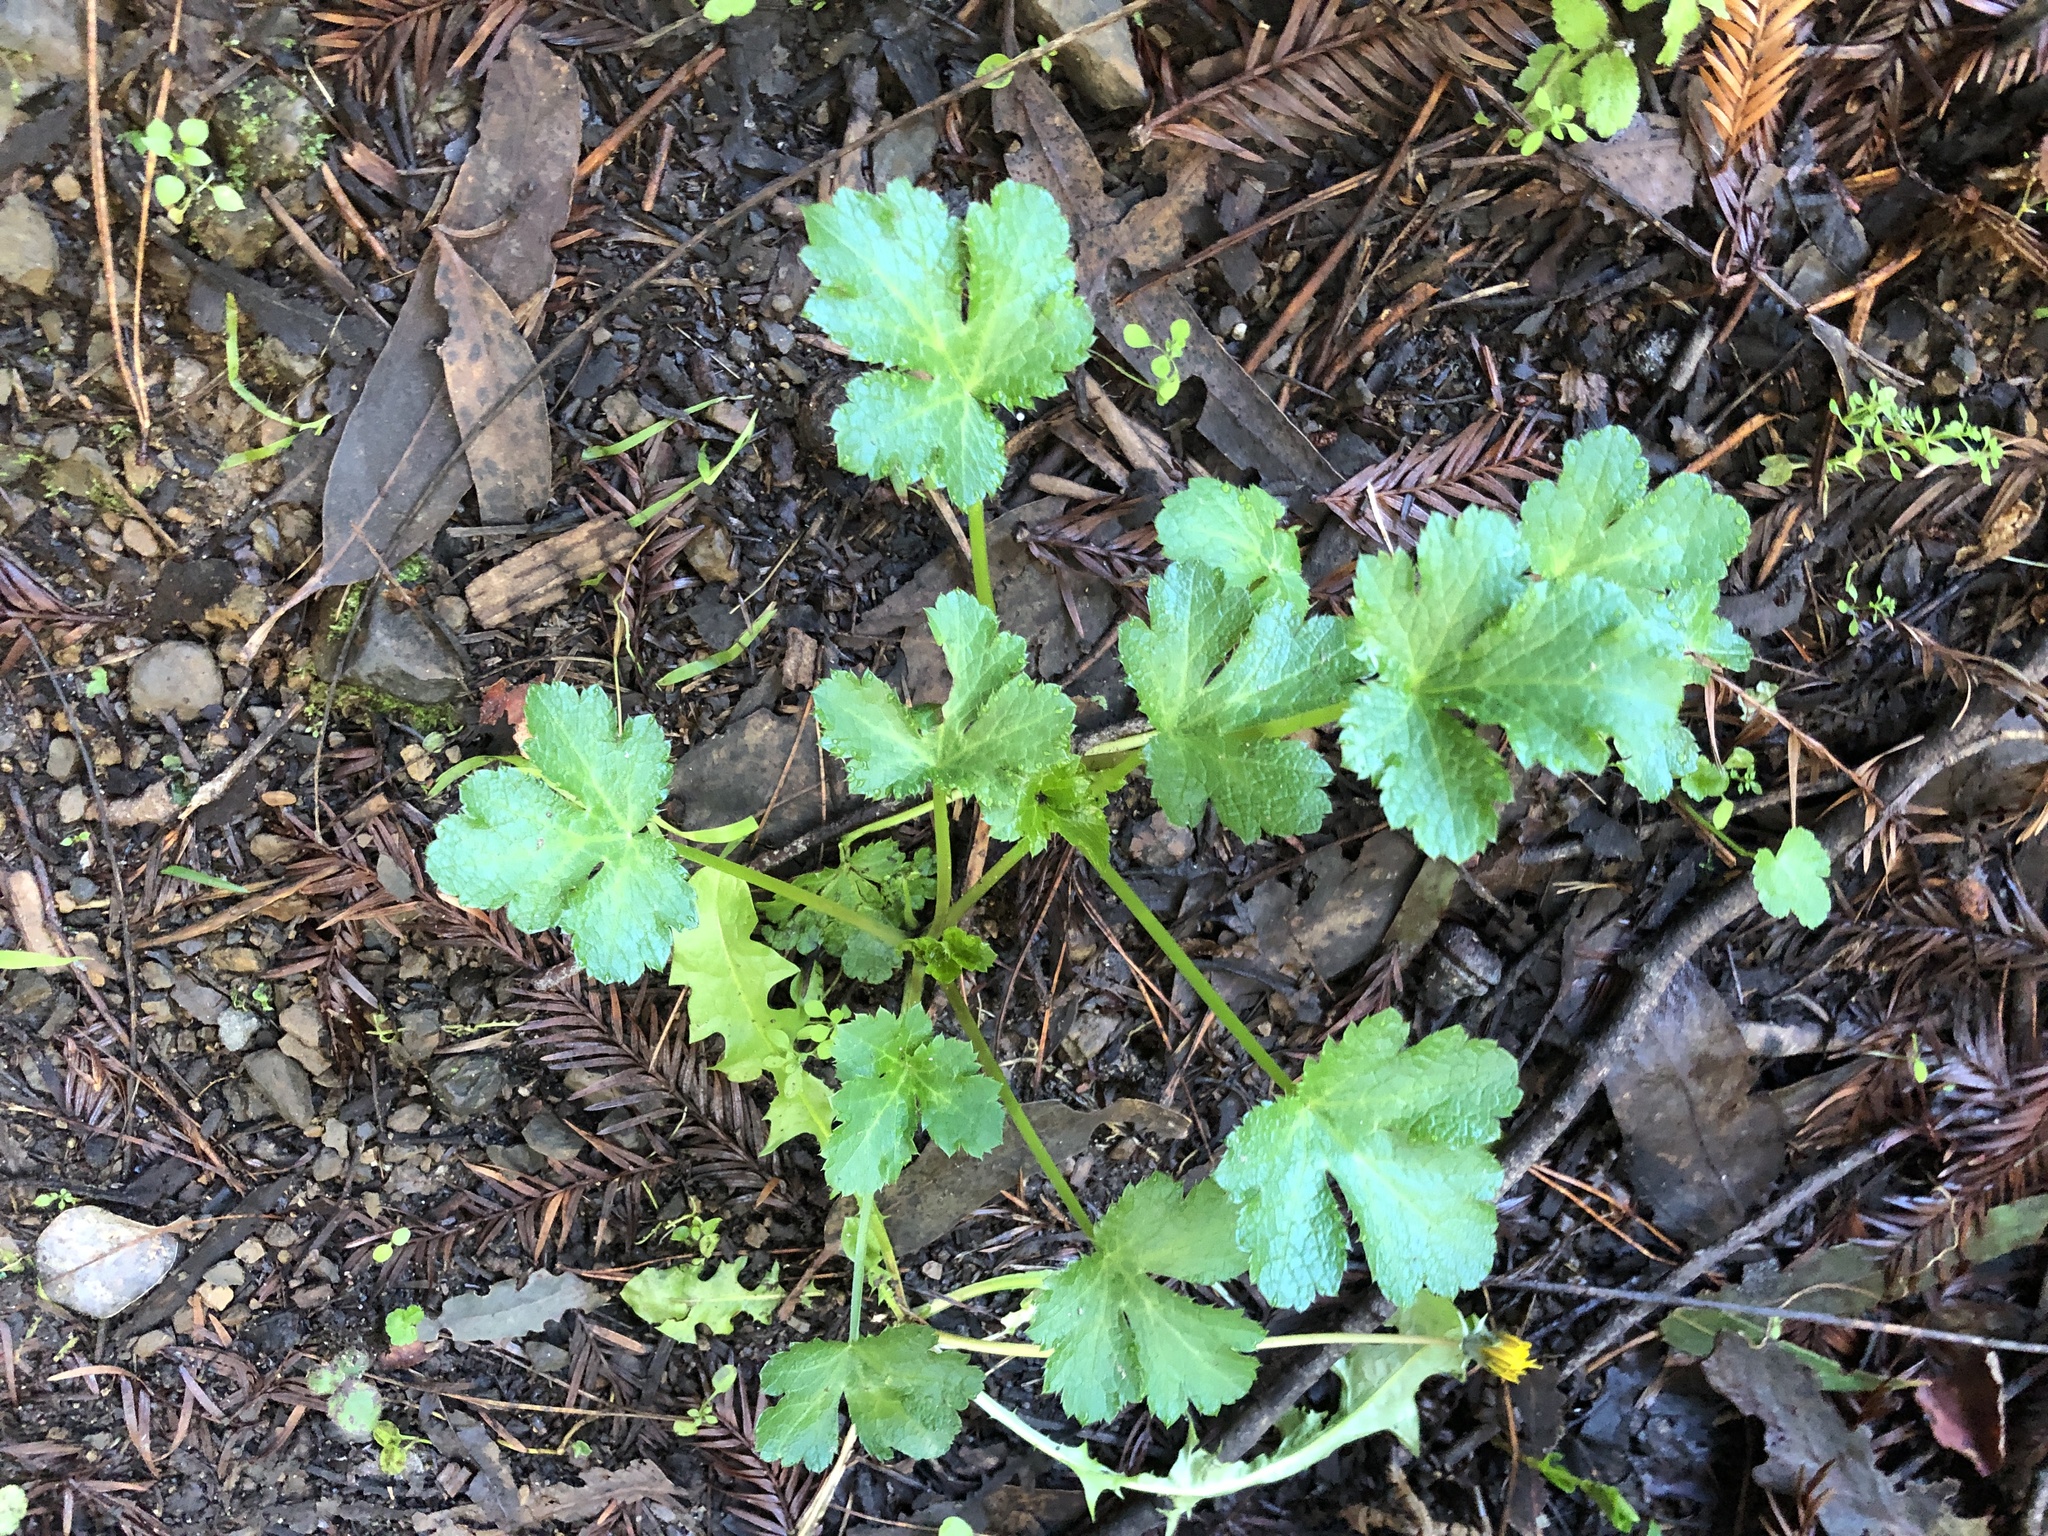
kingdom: Plantae
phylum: Tracheophyta
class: Magnoliopsida
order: Apiales
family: Apiaceae
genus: Sanicula
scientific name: Sanicula crassicaulis
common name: Western snakeroot
